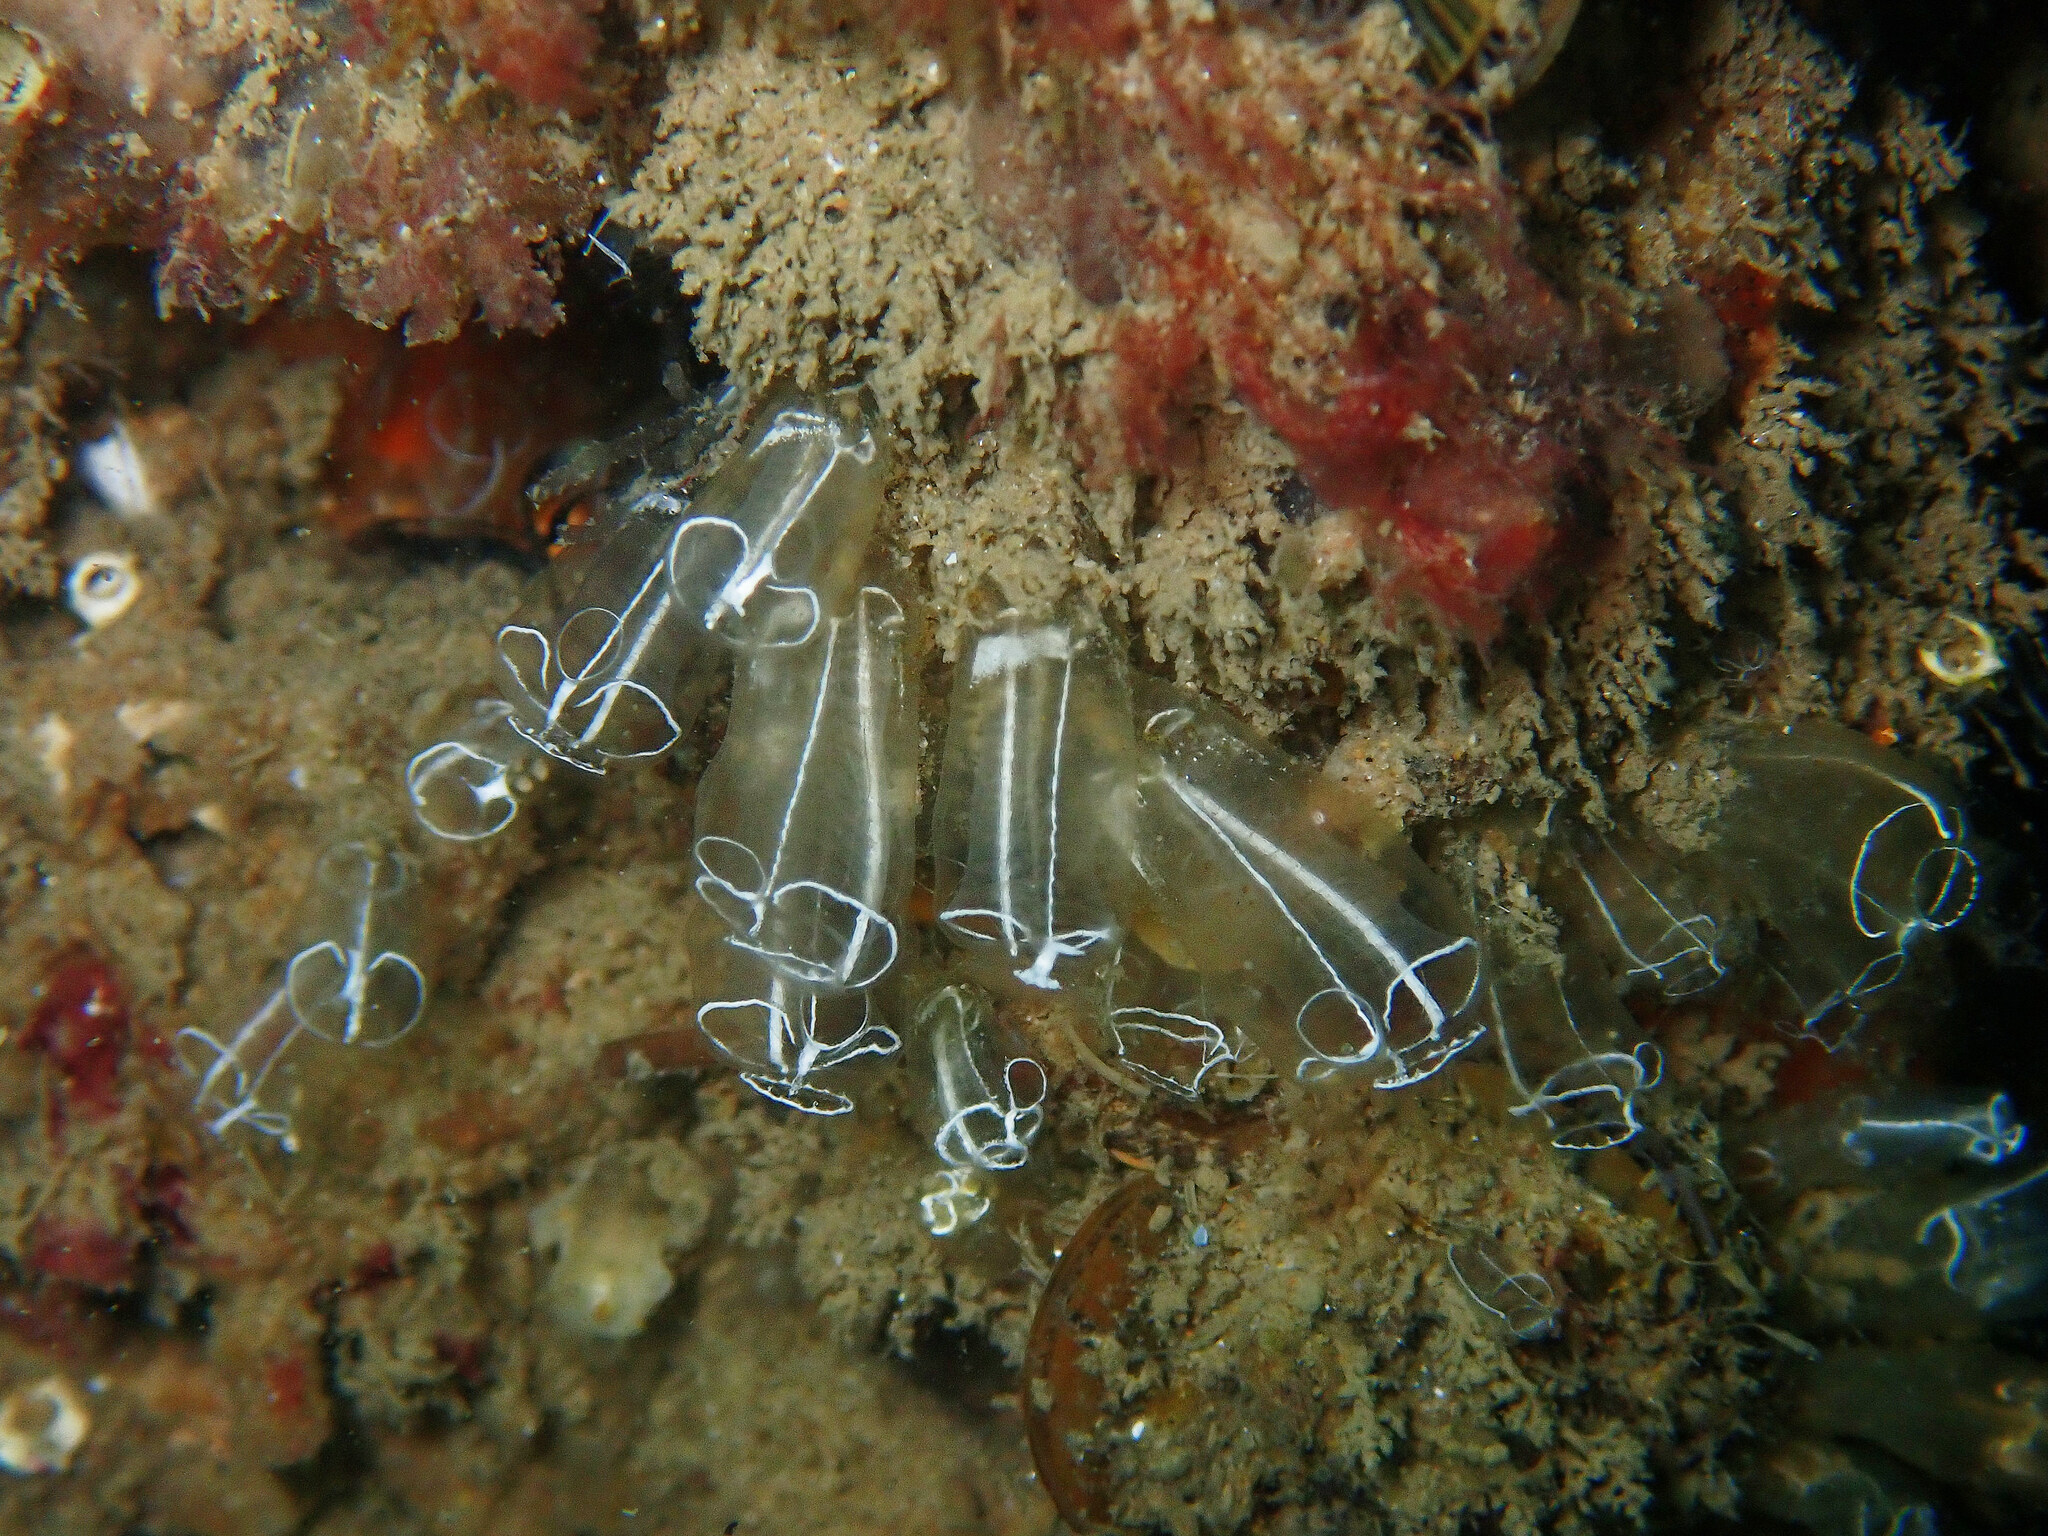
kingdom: Animalia
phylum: Chordata
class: Ascidiacea
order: Aplousobranchia
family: Clavelinidae
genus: Clavelina
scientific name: Clavelina lepadiformis
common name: Light bulb tunicate
